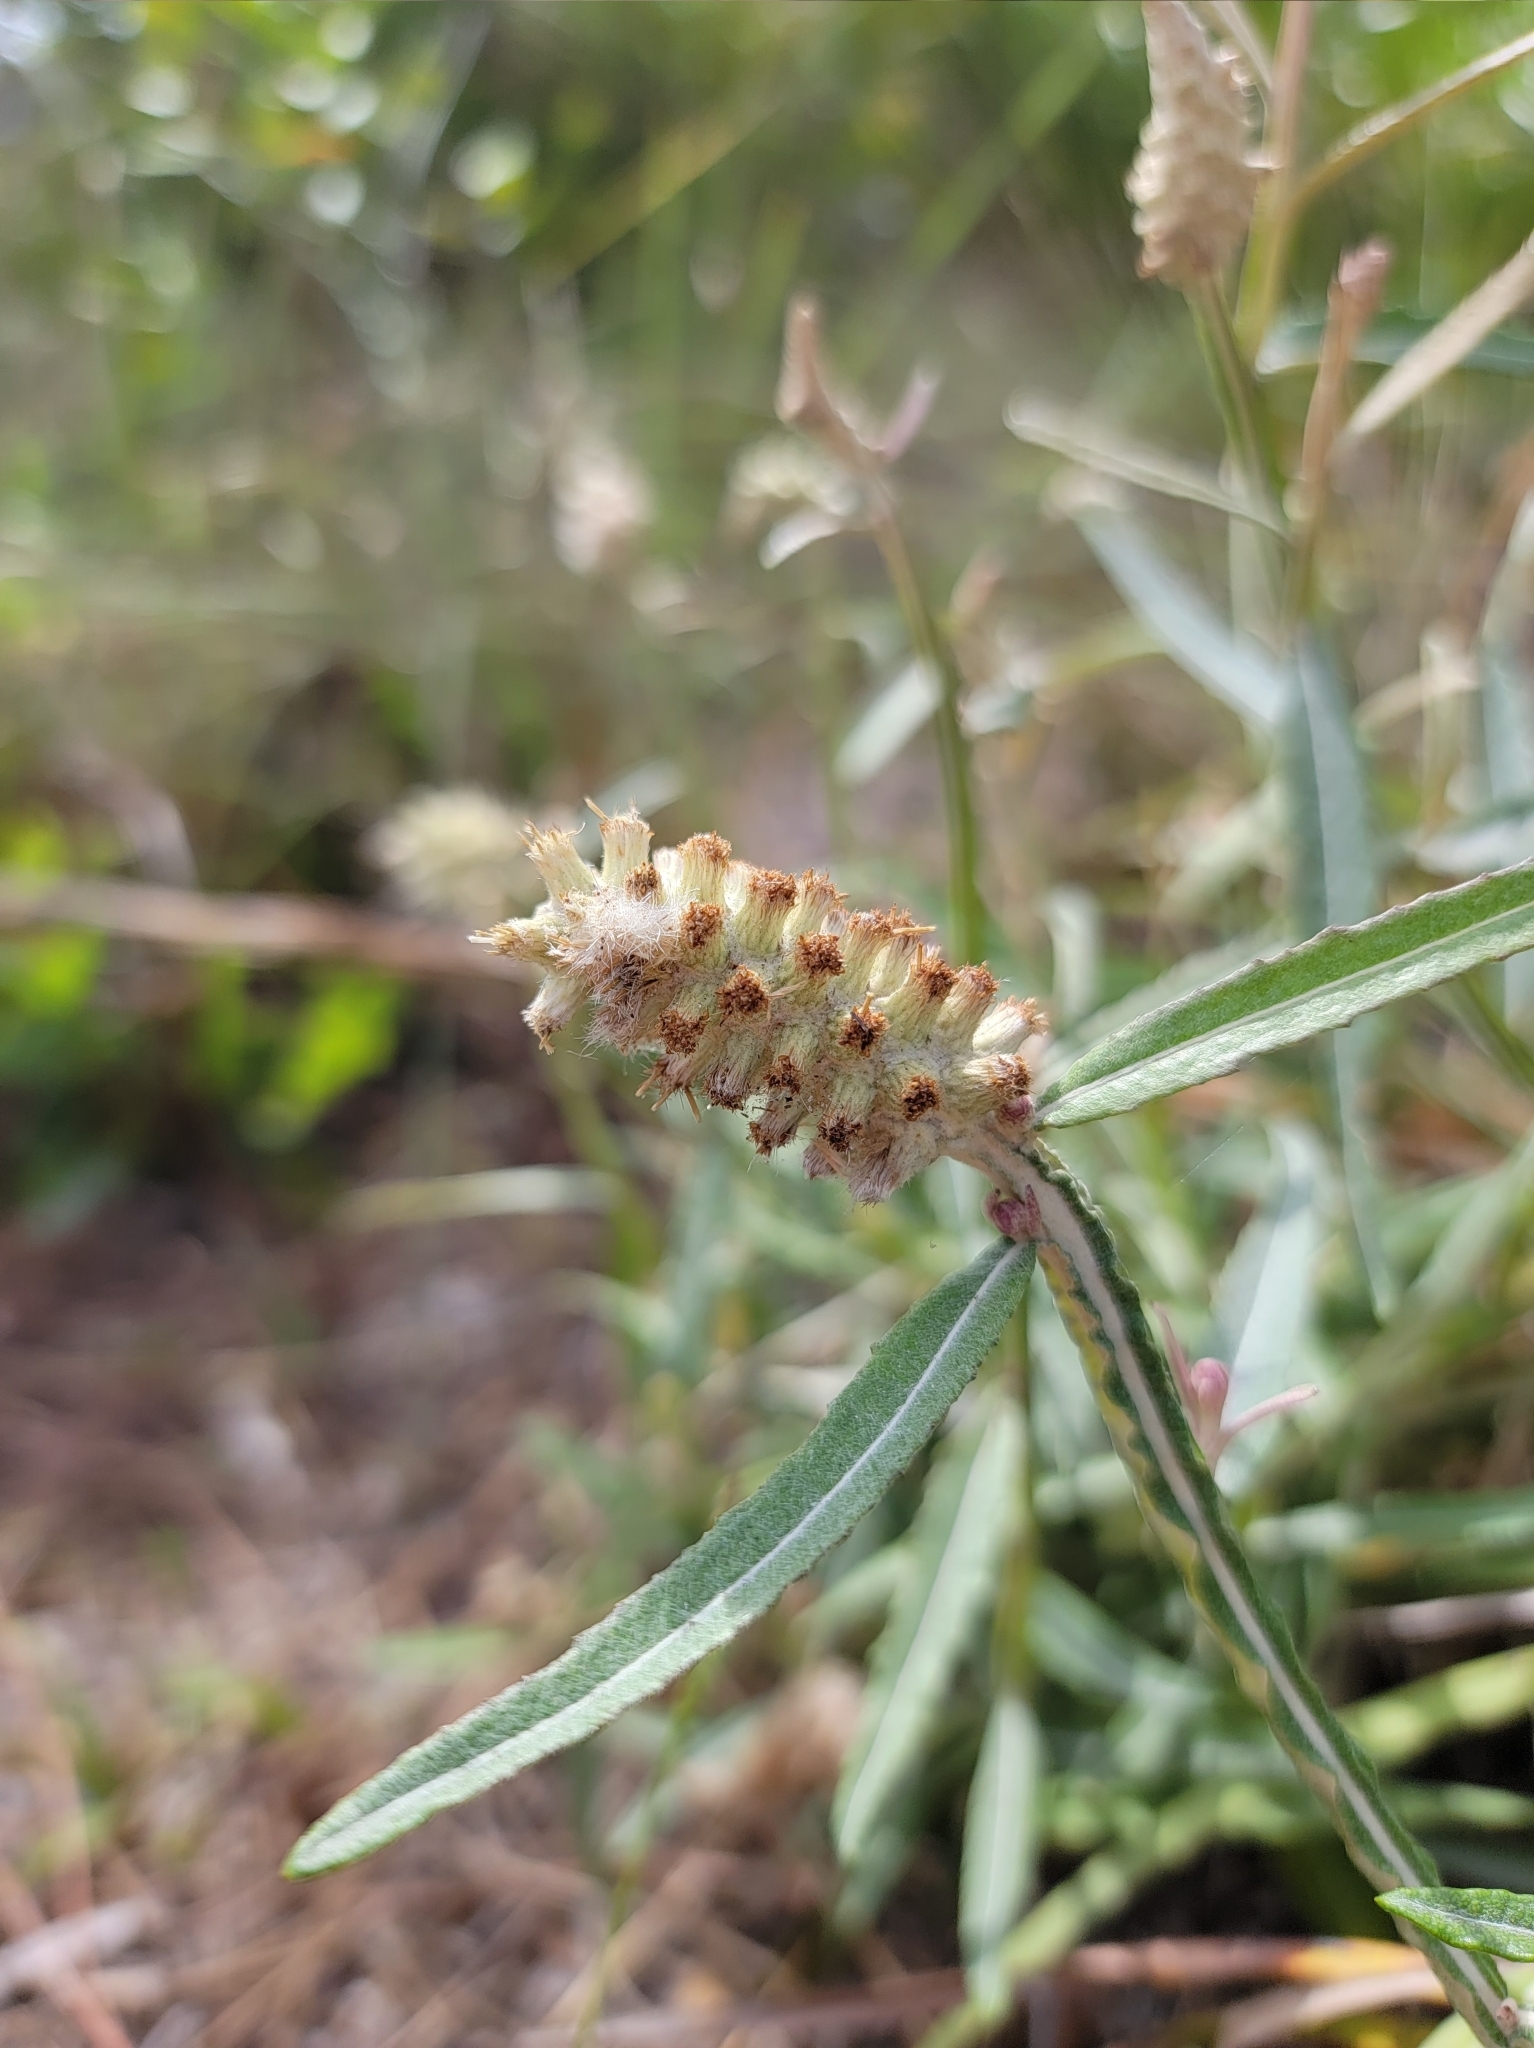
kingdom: Plantae
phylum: Tracheophyta
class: Magnoliopsida
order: Asterales
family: Asteraceae
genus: Pterocaulon
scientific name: Pterocaulon pycnostachyum
